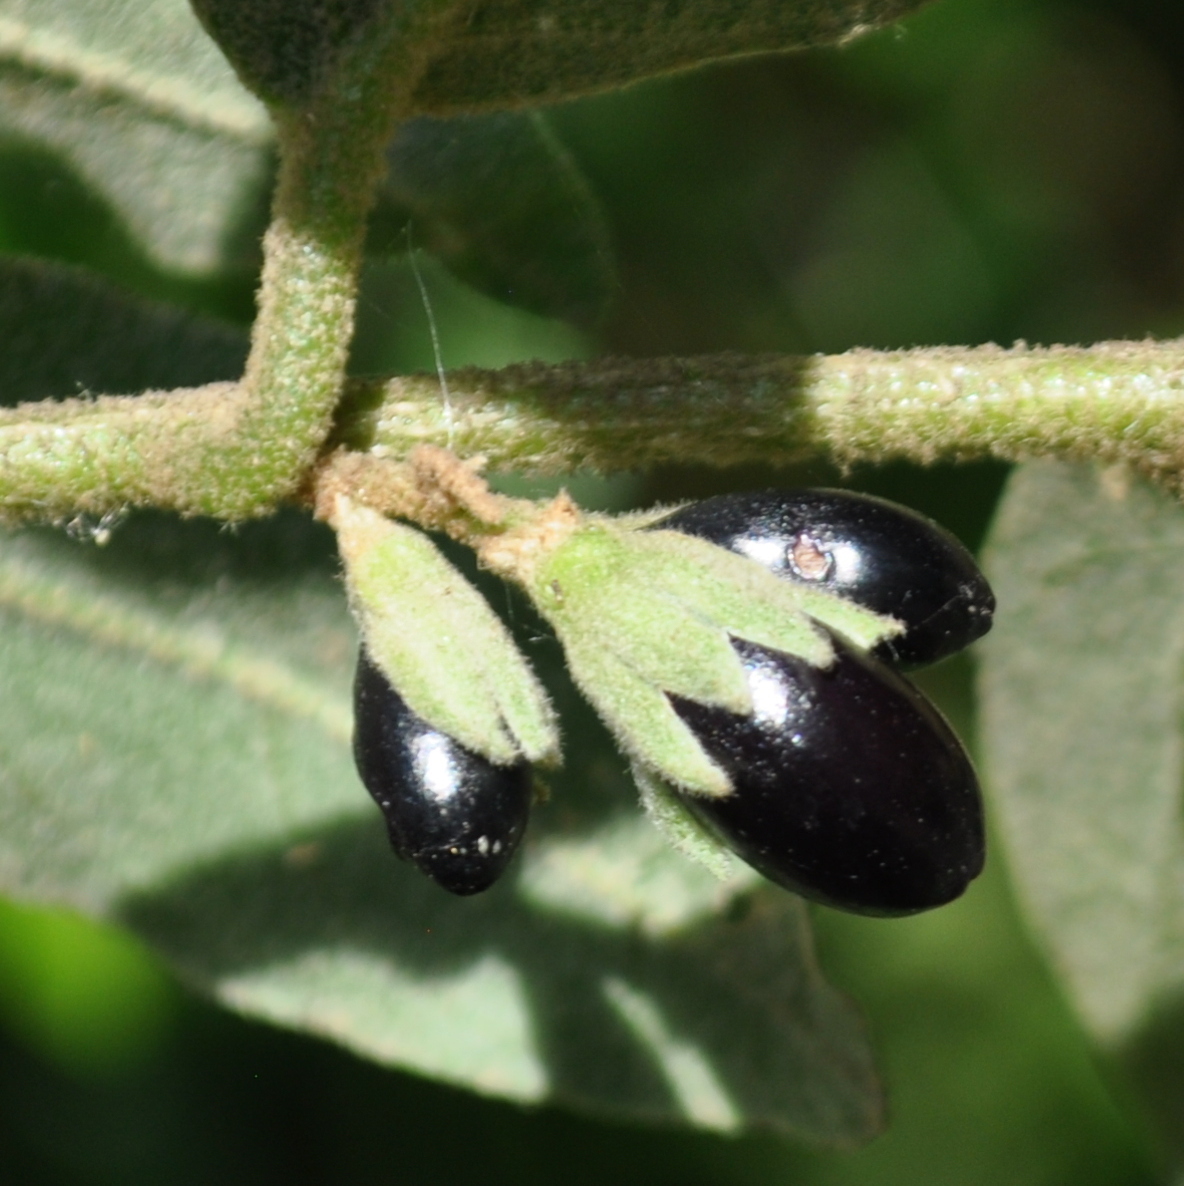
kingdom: Plantae
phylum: Tracheophyta
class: Magnoliopsida
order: Solanales
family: Solanaceae
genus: Cestrum
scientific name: Cestrum strigillatum
